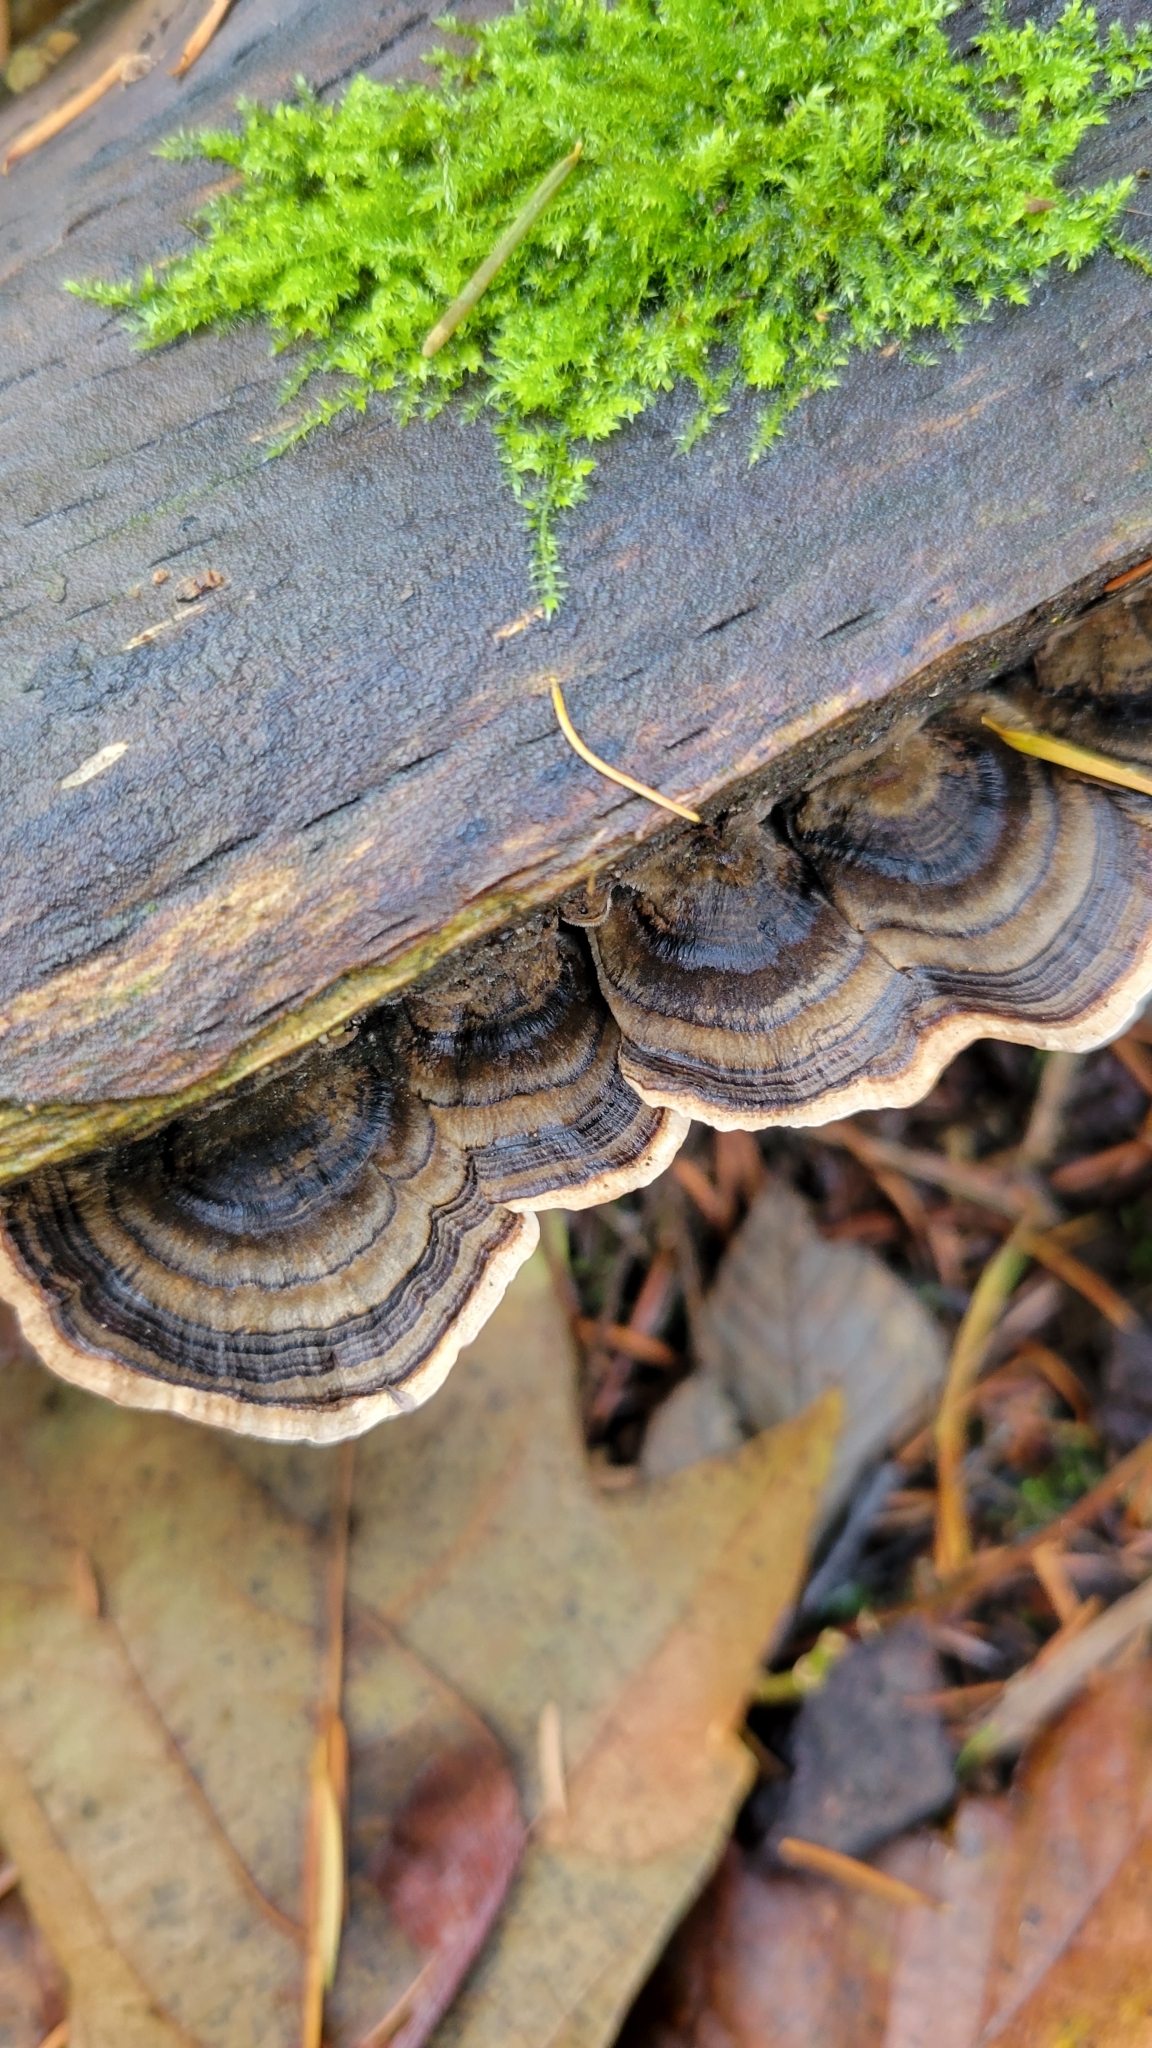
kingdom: Fungi
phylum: Basidiomycota
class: Agaricomycetes
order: Polyporales
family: Polyporaceae
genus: Trametes
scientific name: Trametes versicolor
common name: Turkeytail
